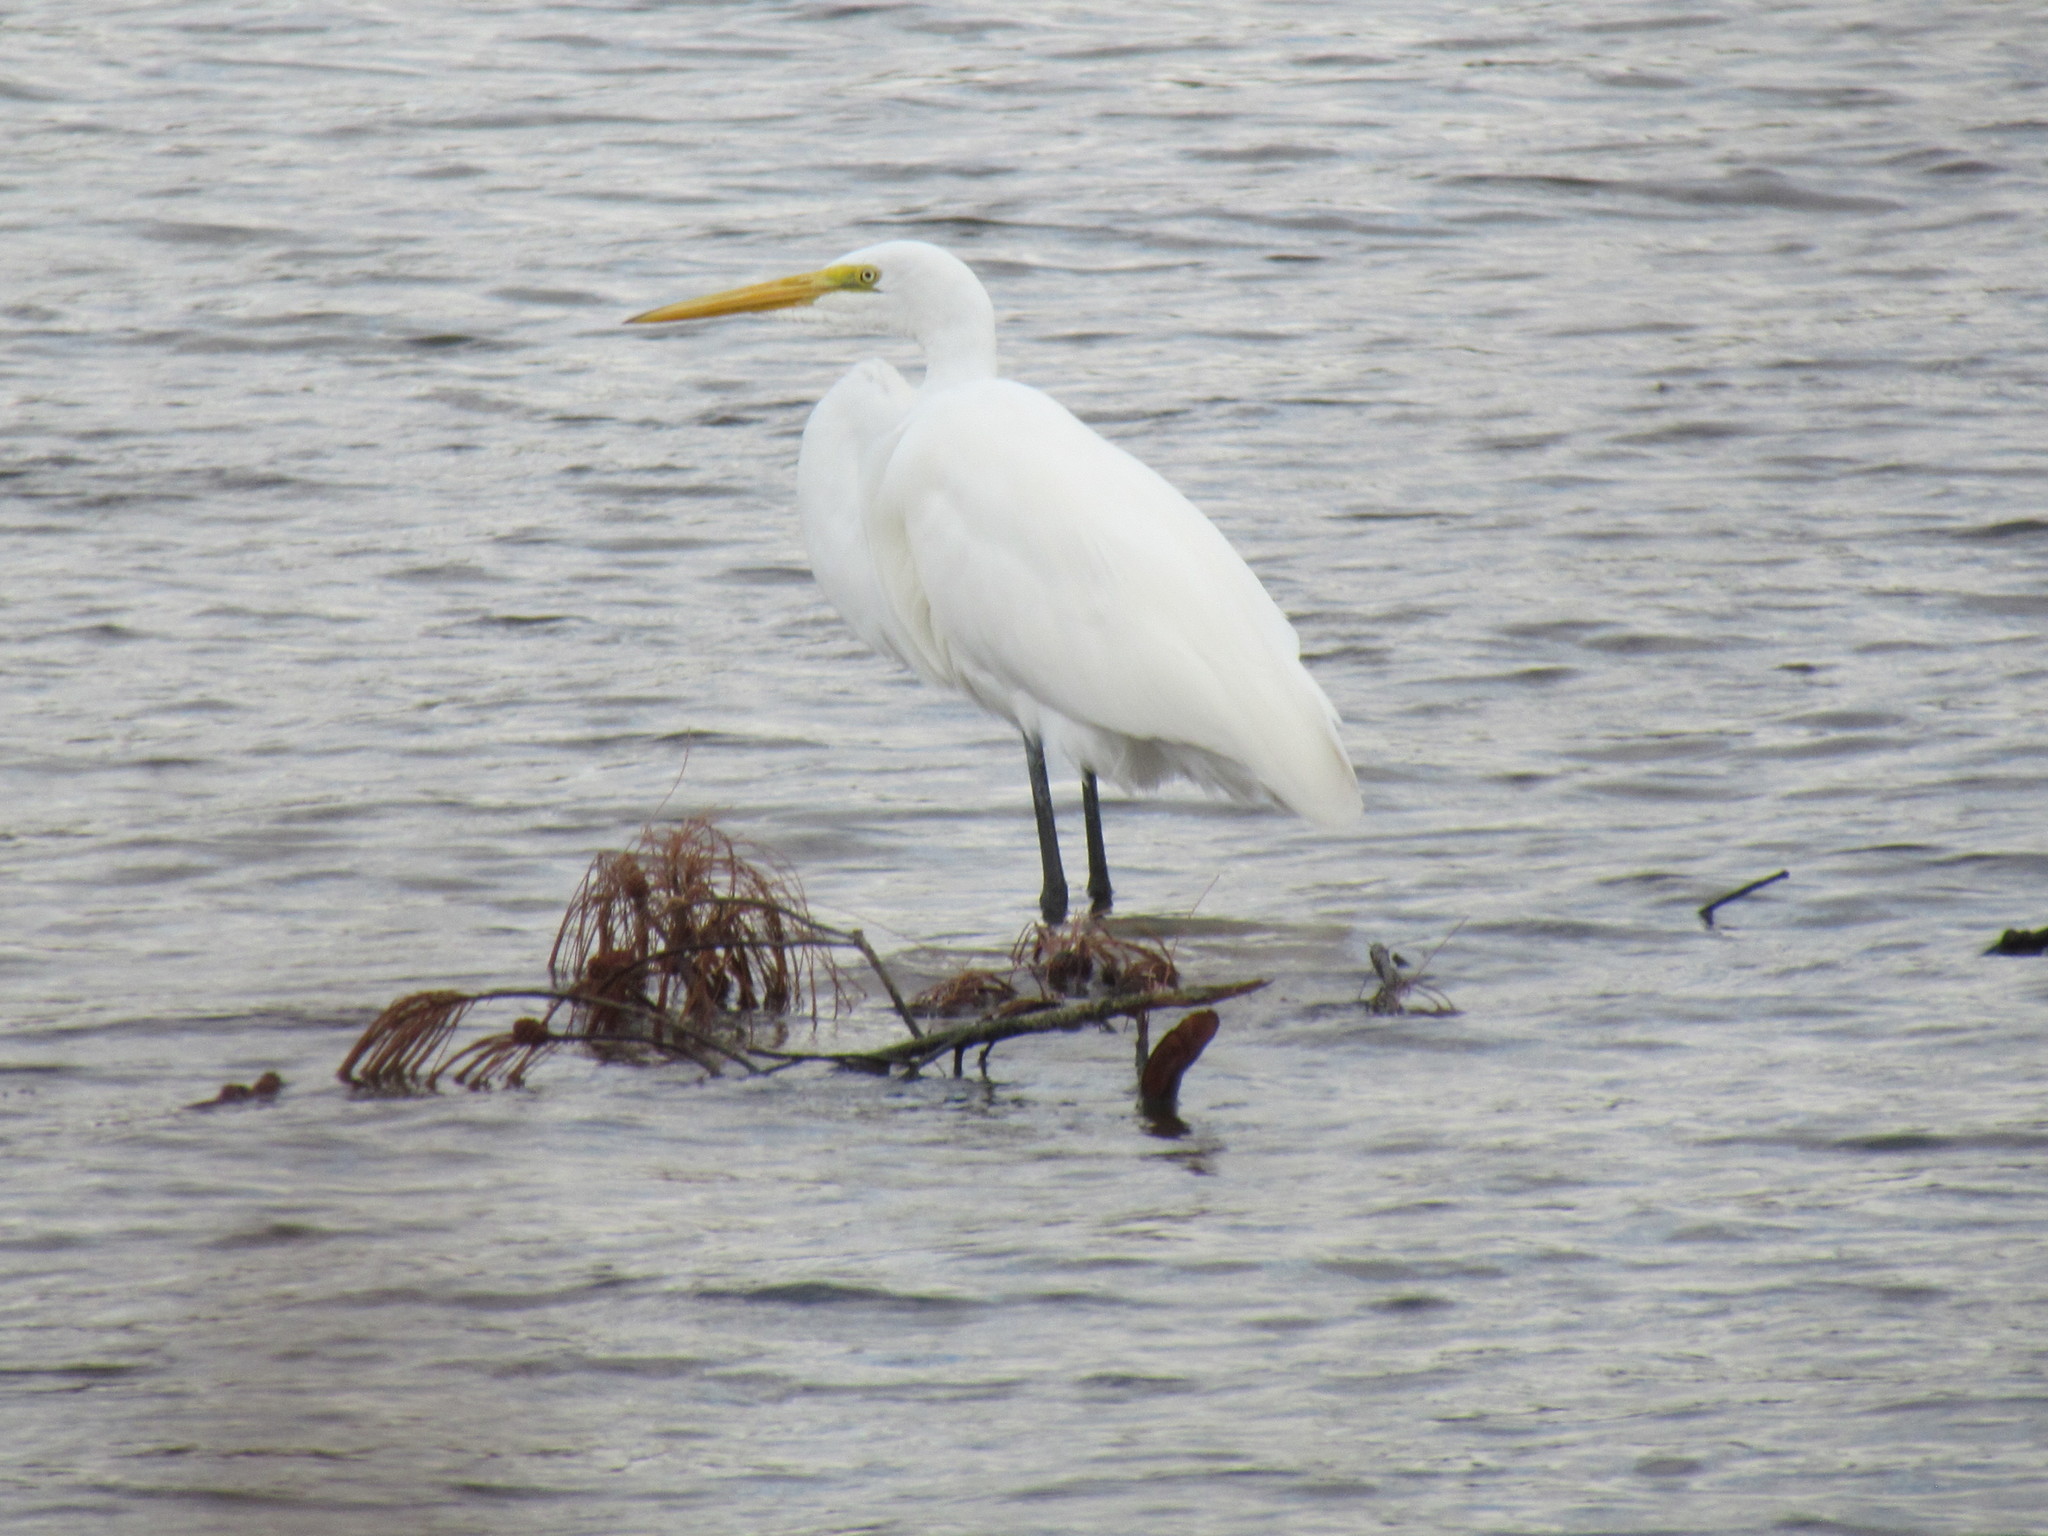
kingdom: Animalia
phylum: Chordata
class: Aves
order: Pelecaniformes
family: Ardeidae
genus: Ardea
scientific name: Ardea alba
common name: Great egret
